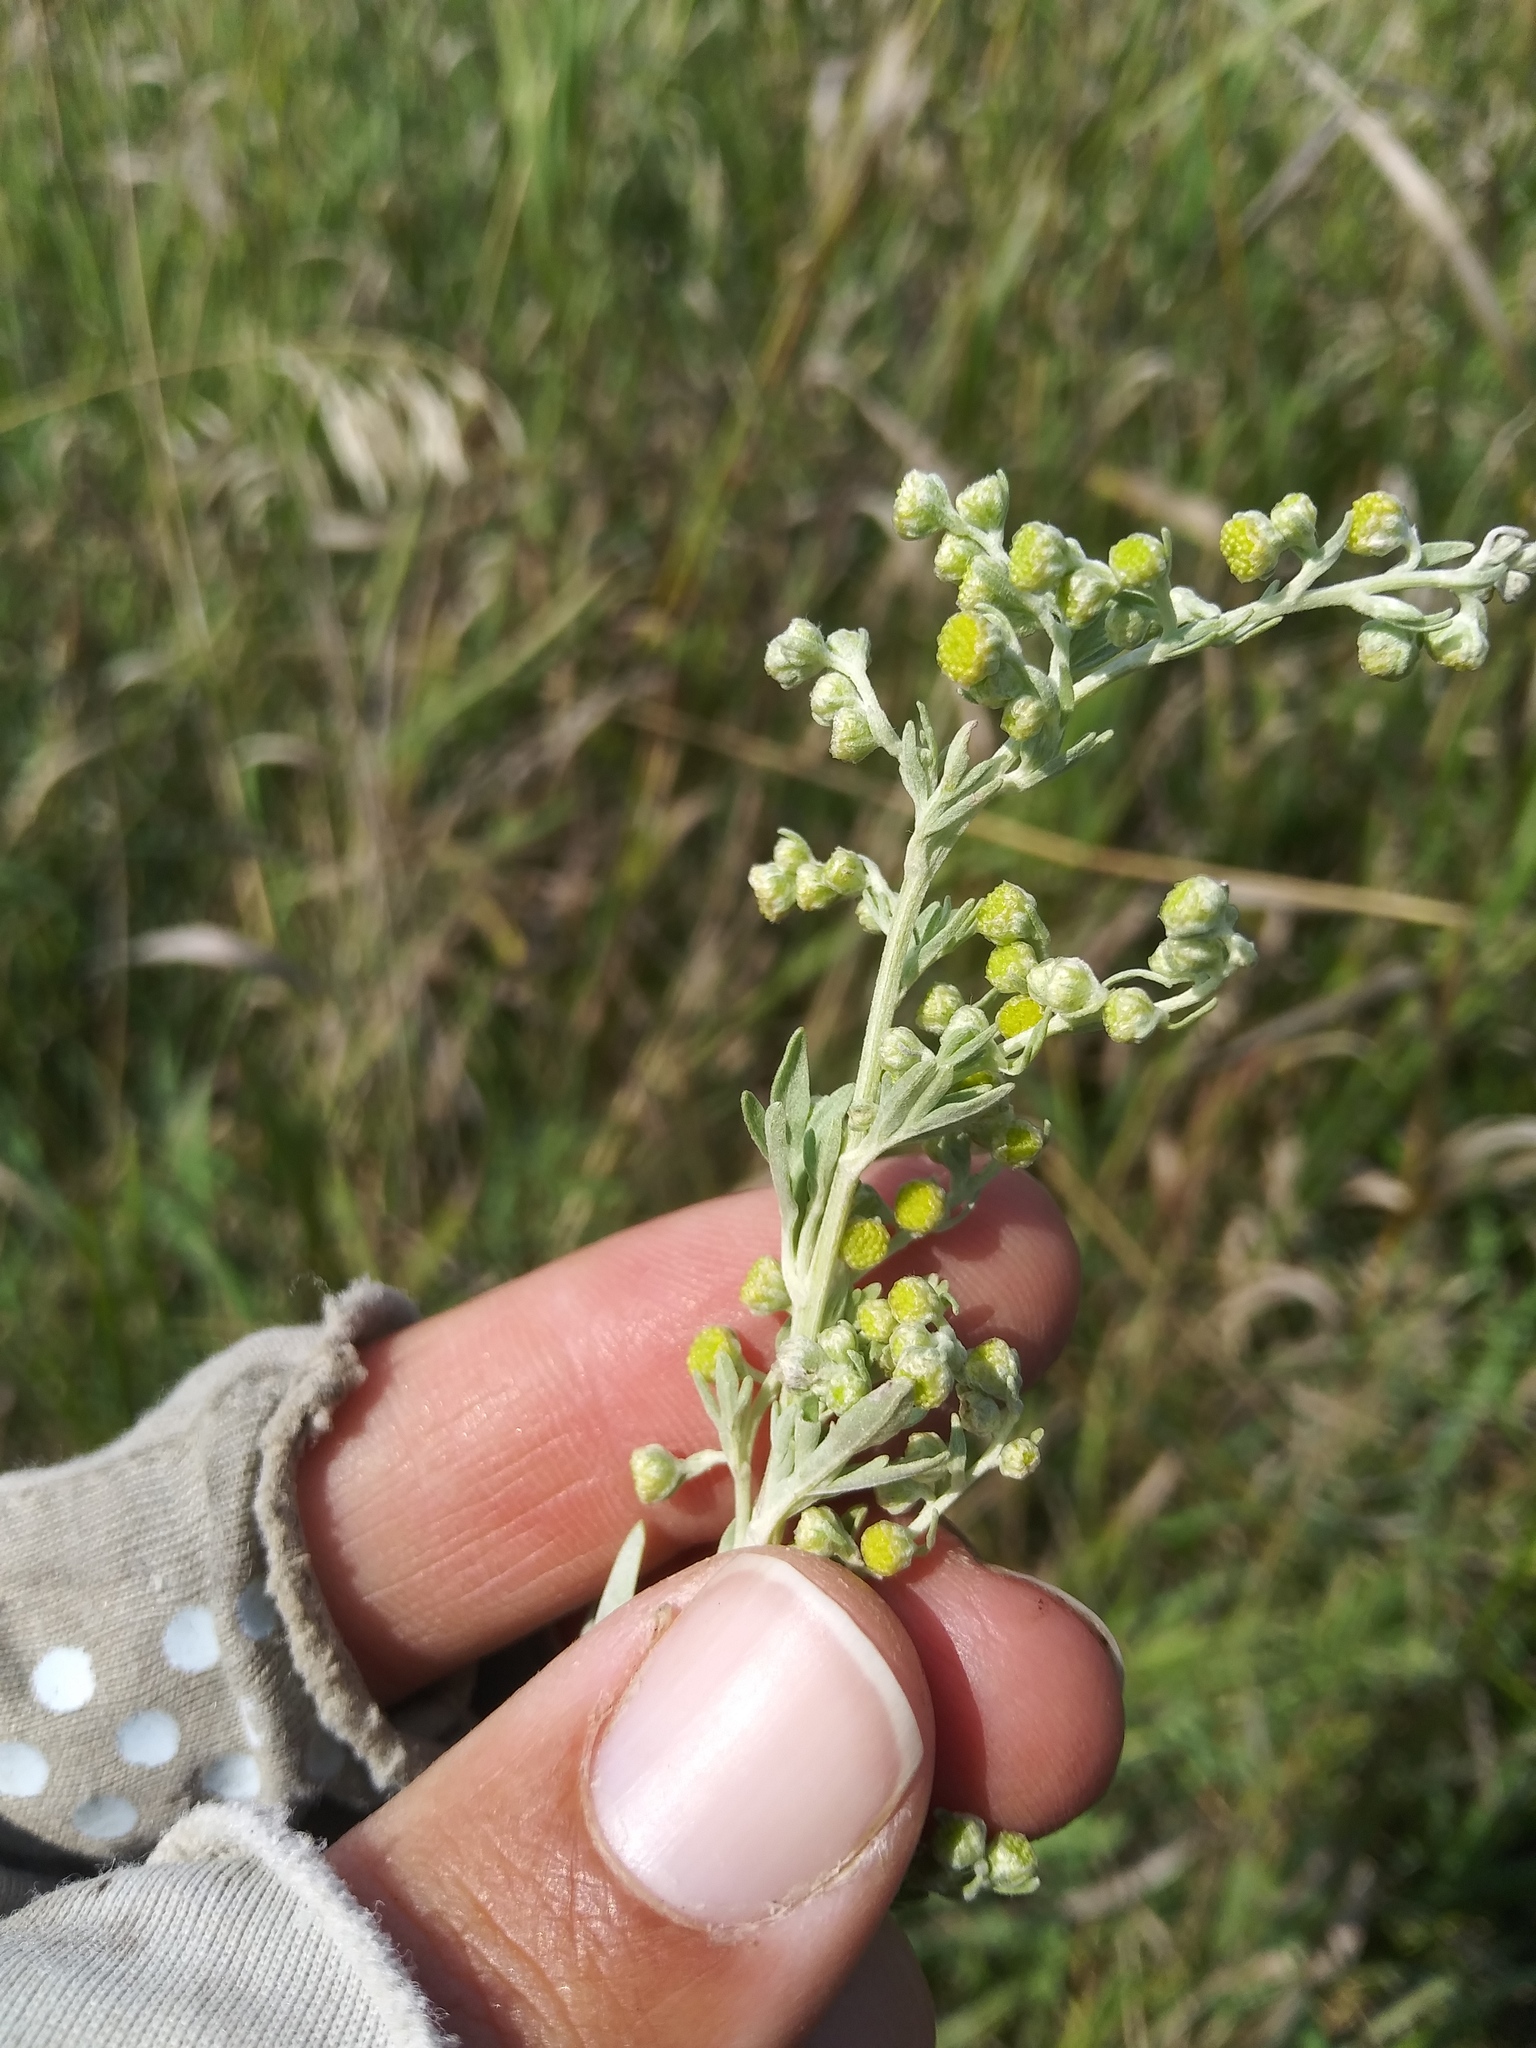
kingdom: Plantae
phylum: Tracheophyta
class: Magnoliopsida
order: Asterales
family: Asteraceae
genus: Artemisia
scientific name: Artemisia absinthium
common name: Wormwood
